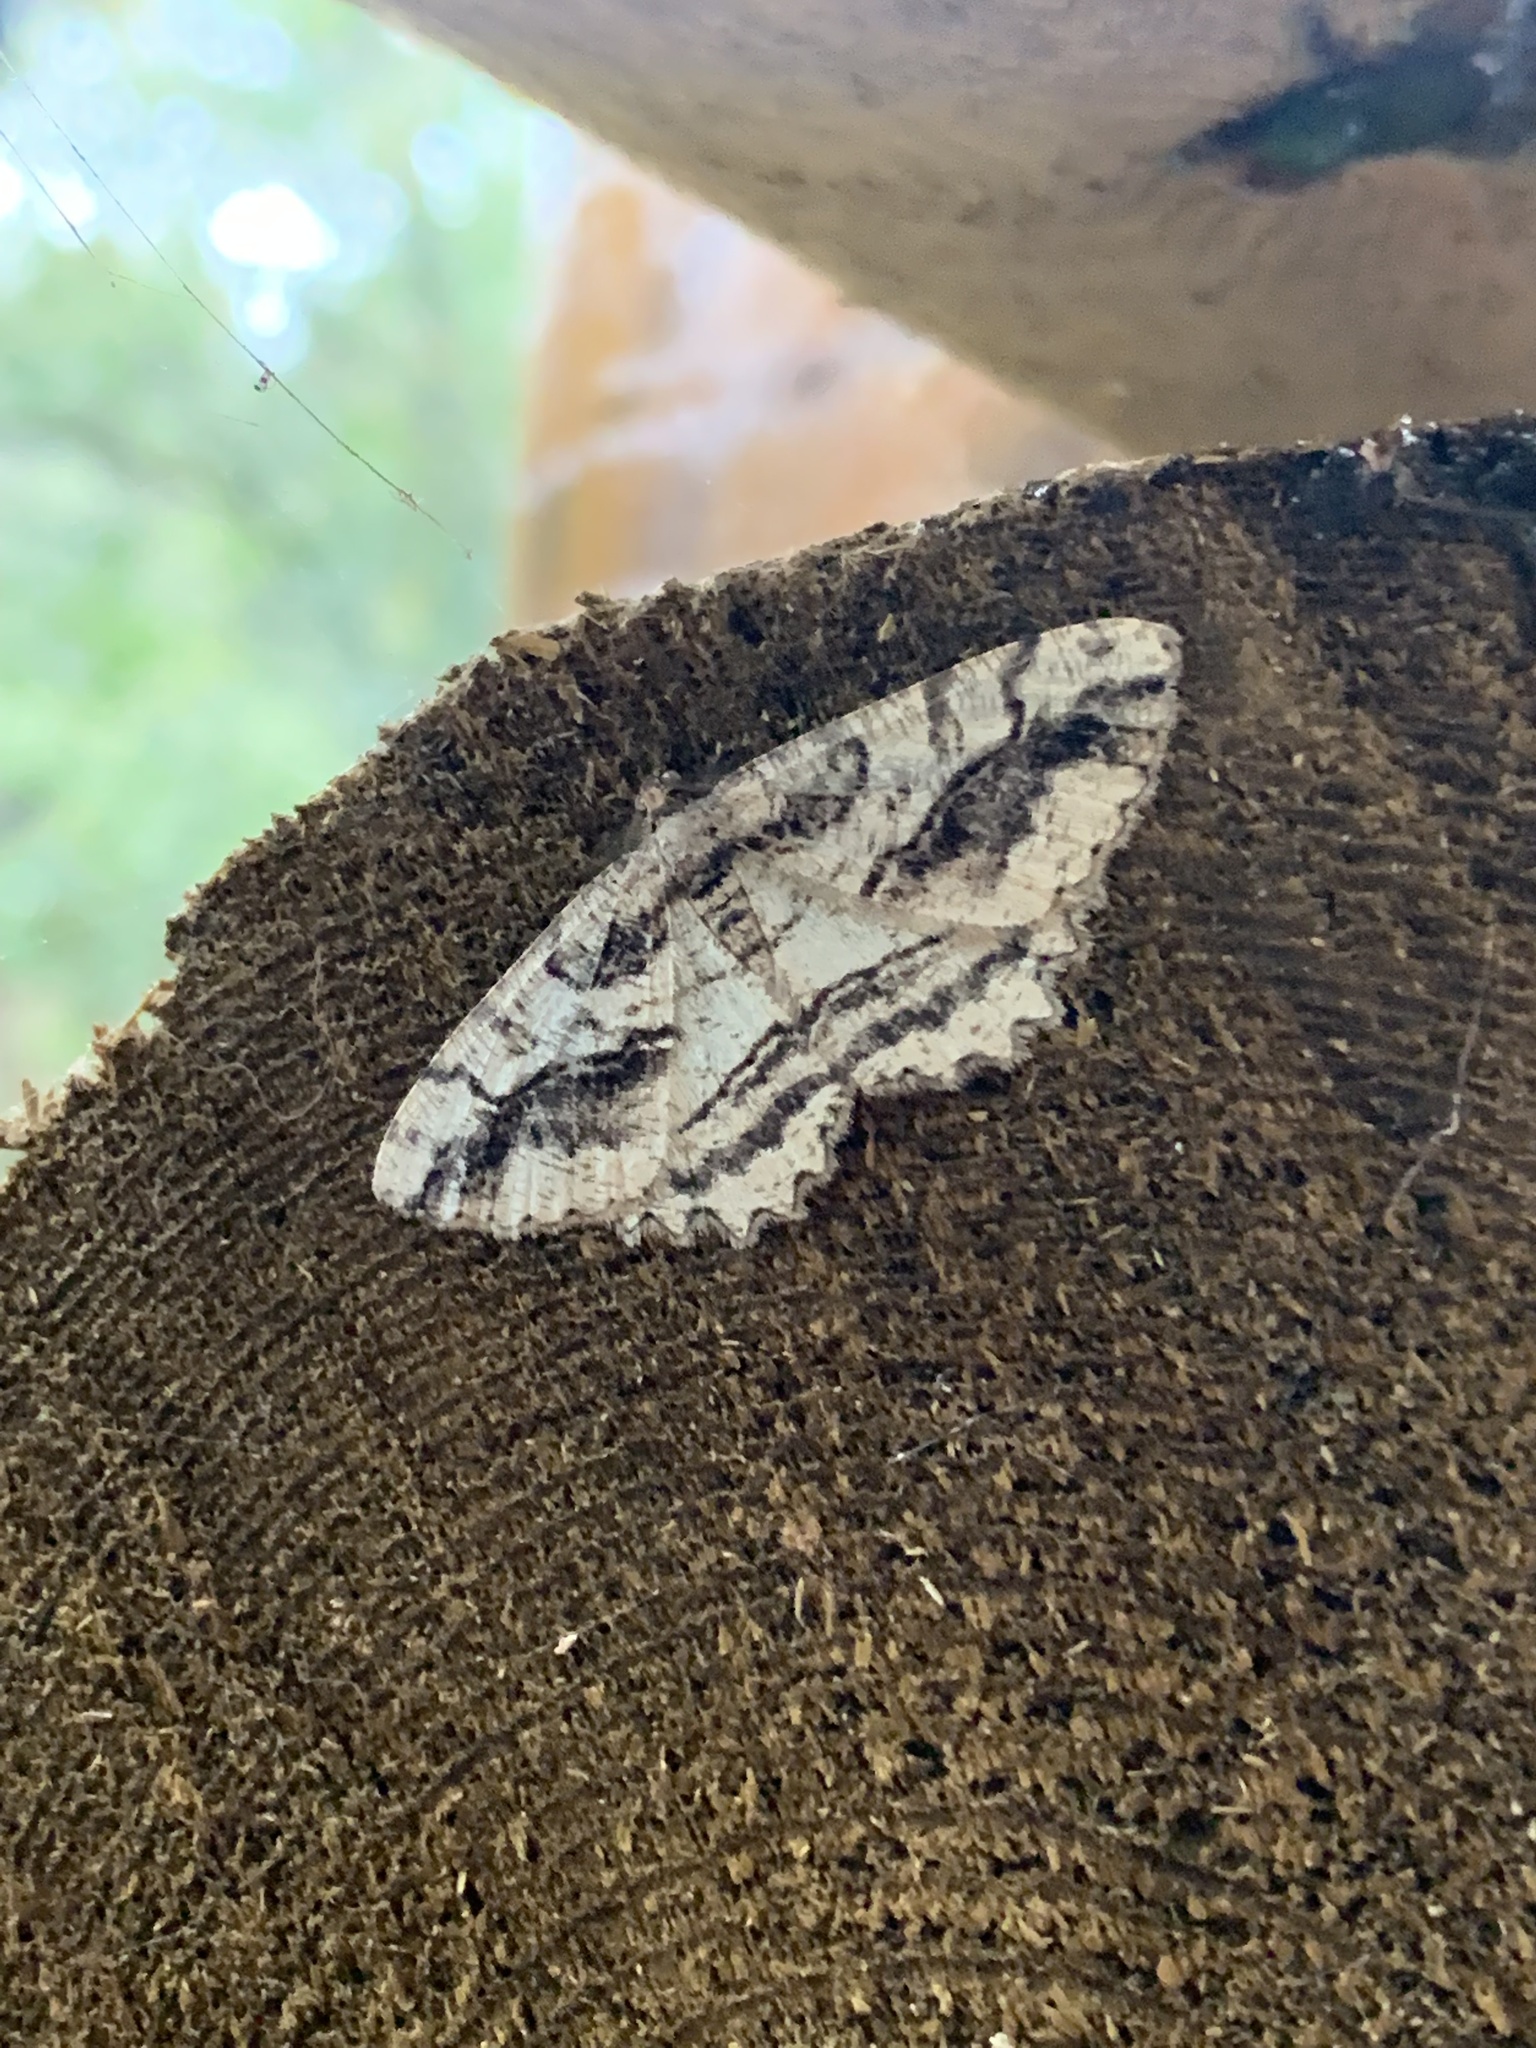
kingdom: Animalia
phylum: Arthropoda
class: Insecta
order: Lepidoptera
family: Geometridae
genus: Neoalcis
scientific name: Neoalcis californiaria
